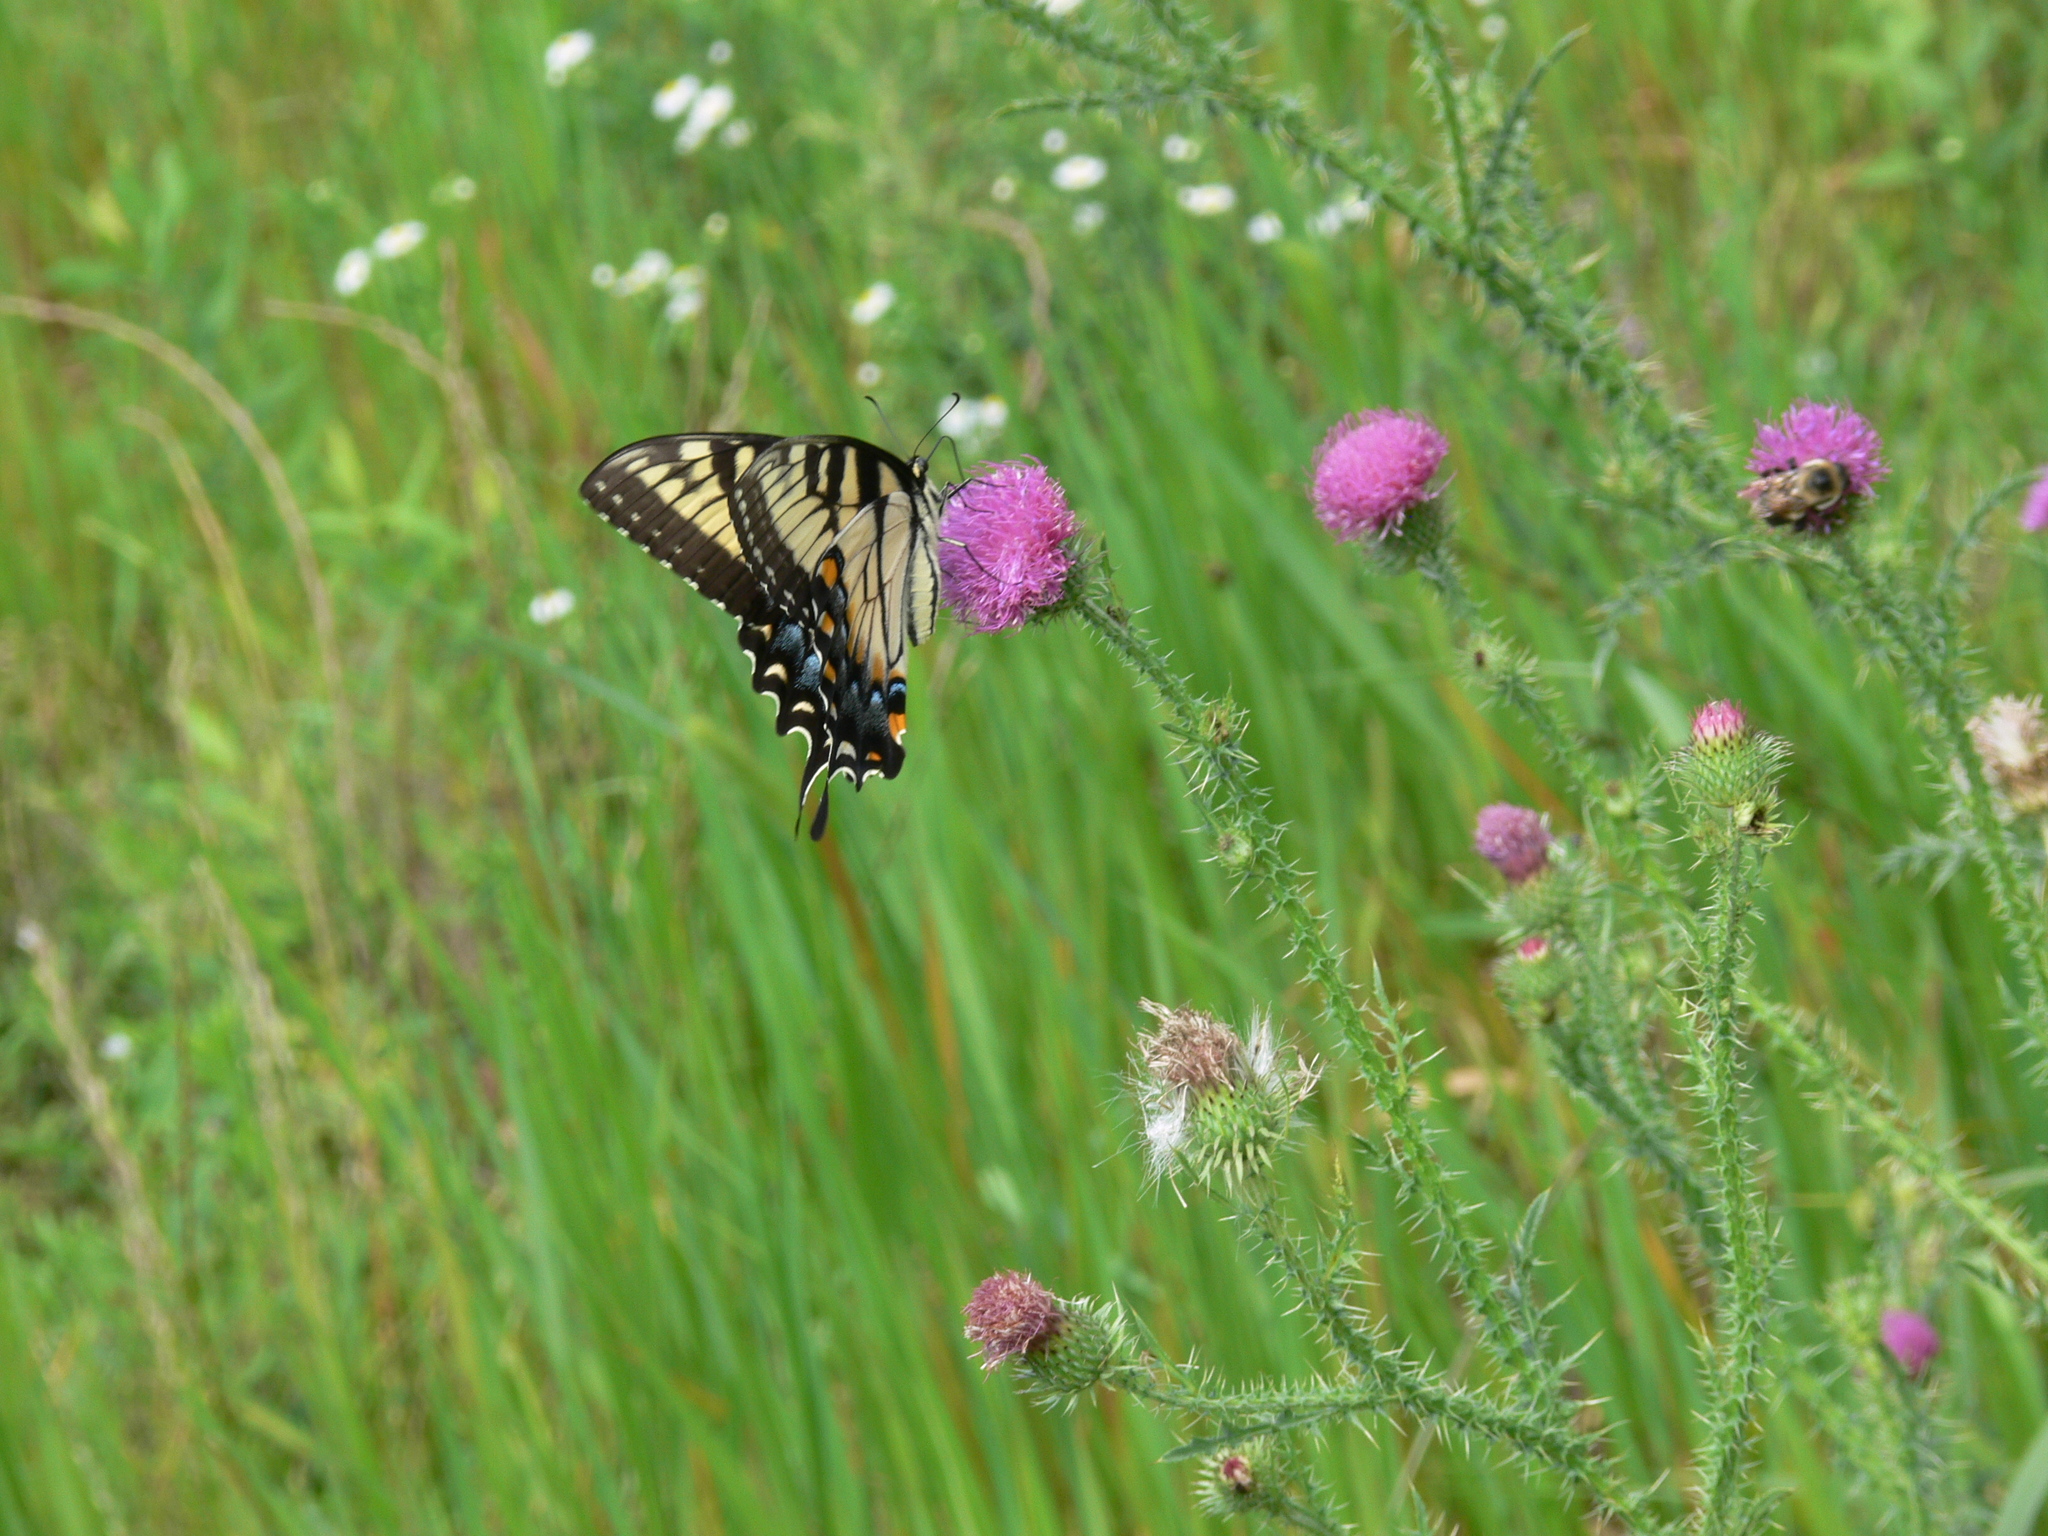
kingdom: Animalia
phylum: Arthropoda
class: Insecta
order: Lepidoptera
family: Papilionidae
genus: Papilio
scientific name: Papilio glaucus
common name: Tiger swallowtail
